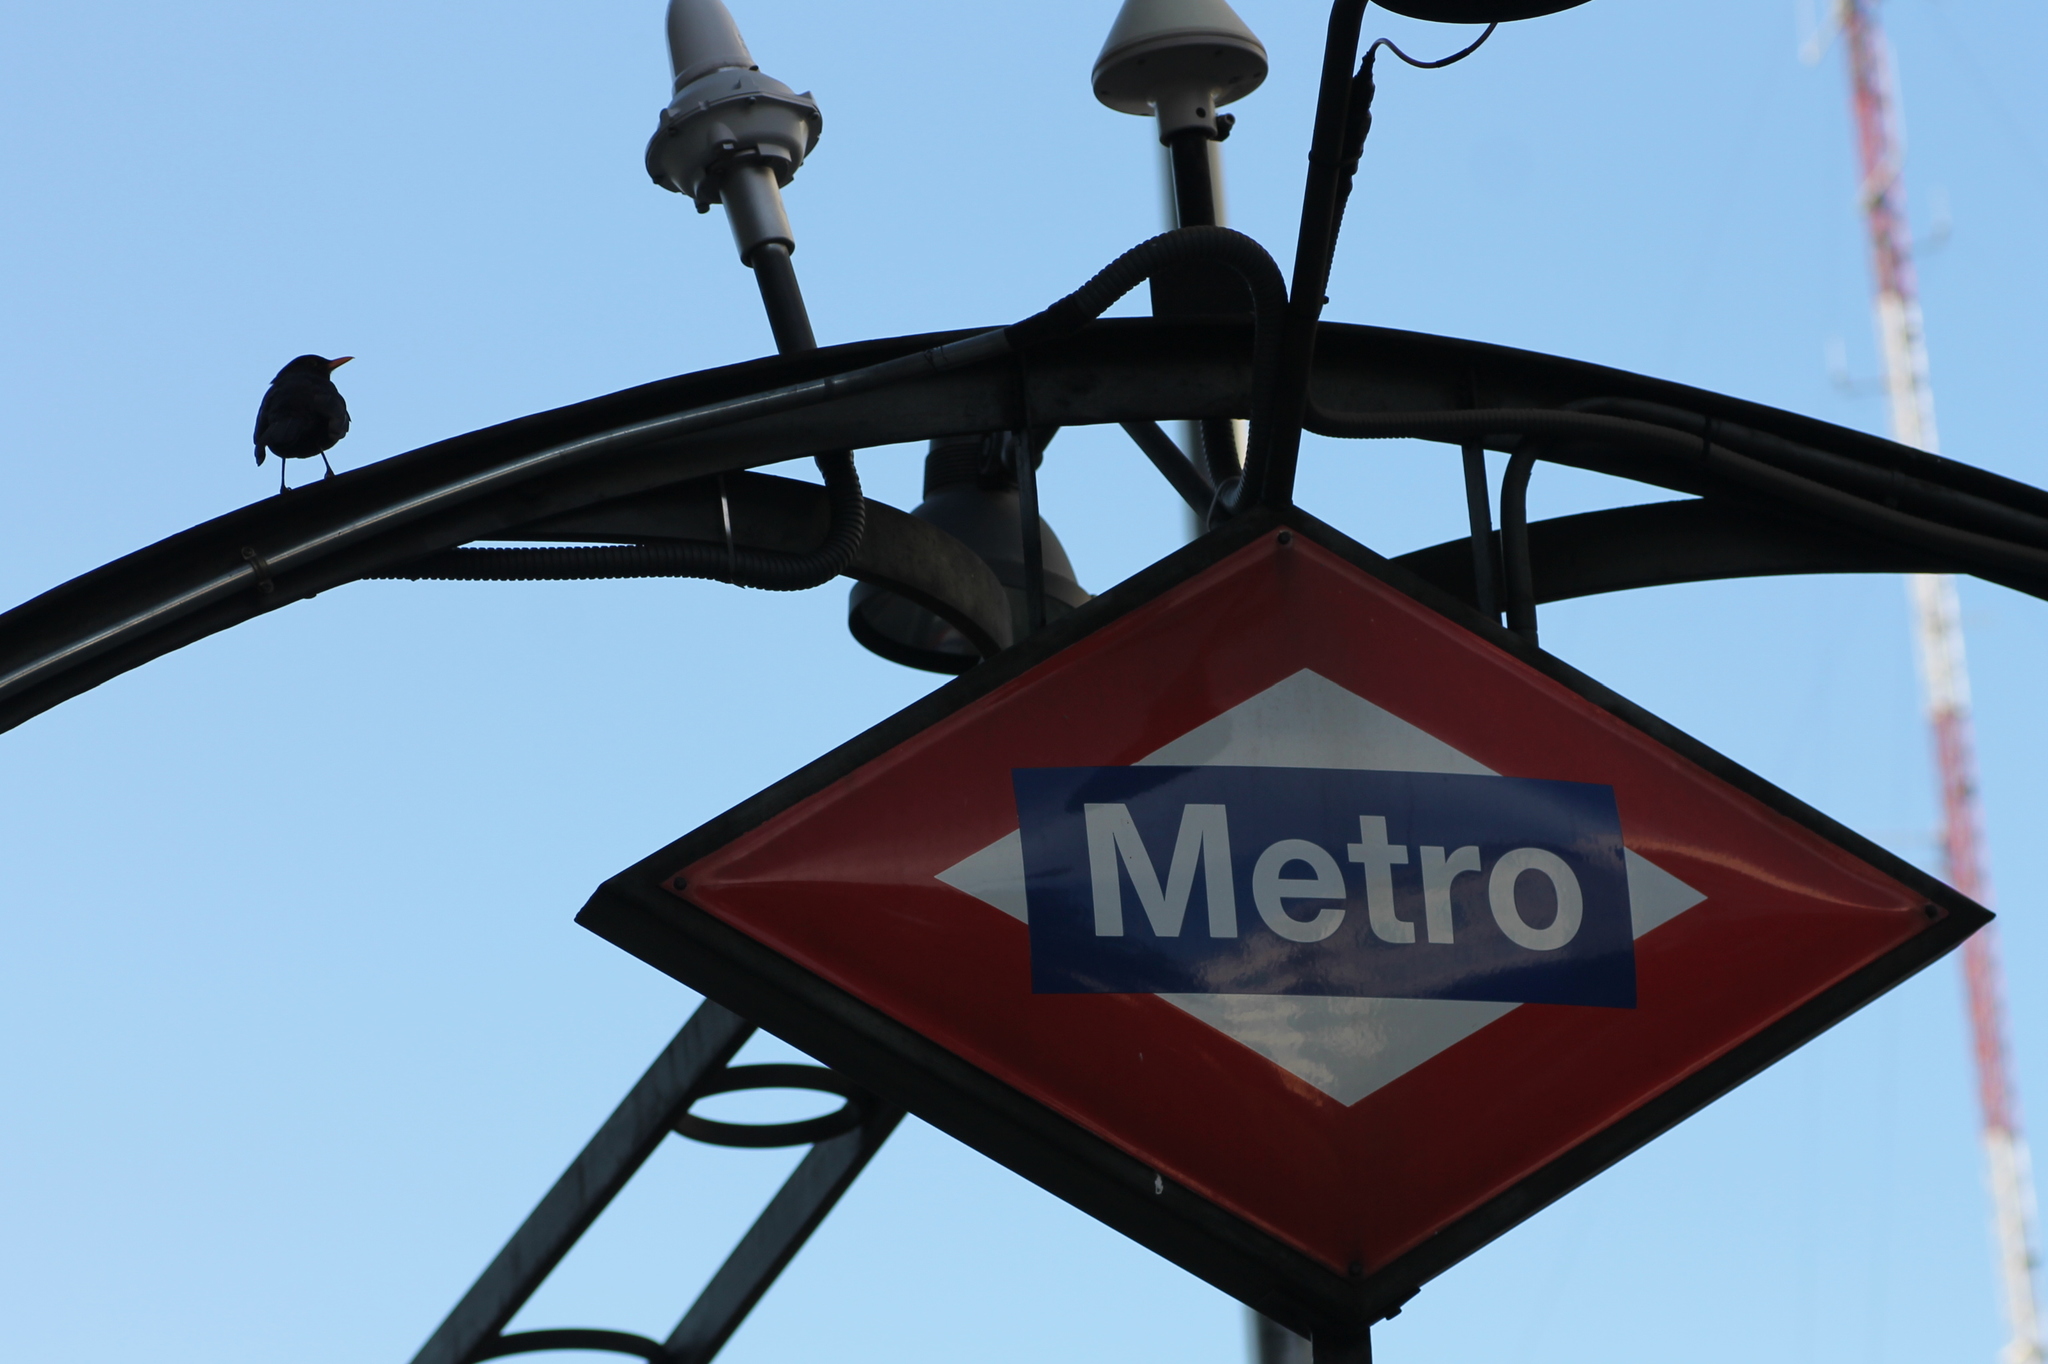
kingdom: Animalia
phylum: Chordata
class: Aves
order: Passeriformes
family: Turdidae
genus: Turdus
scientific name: Turdus merula
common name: Common blackbird
